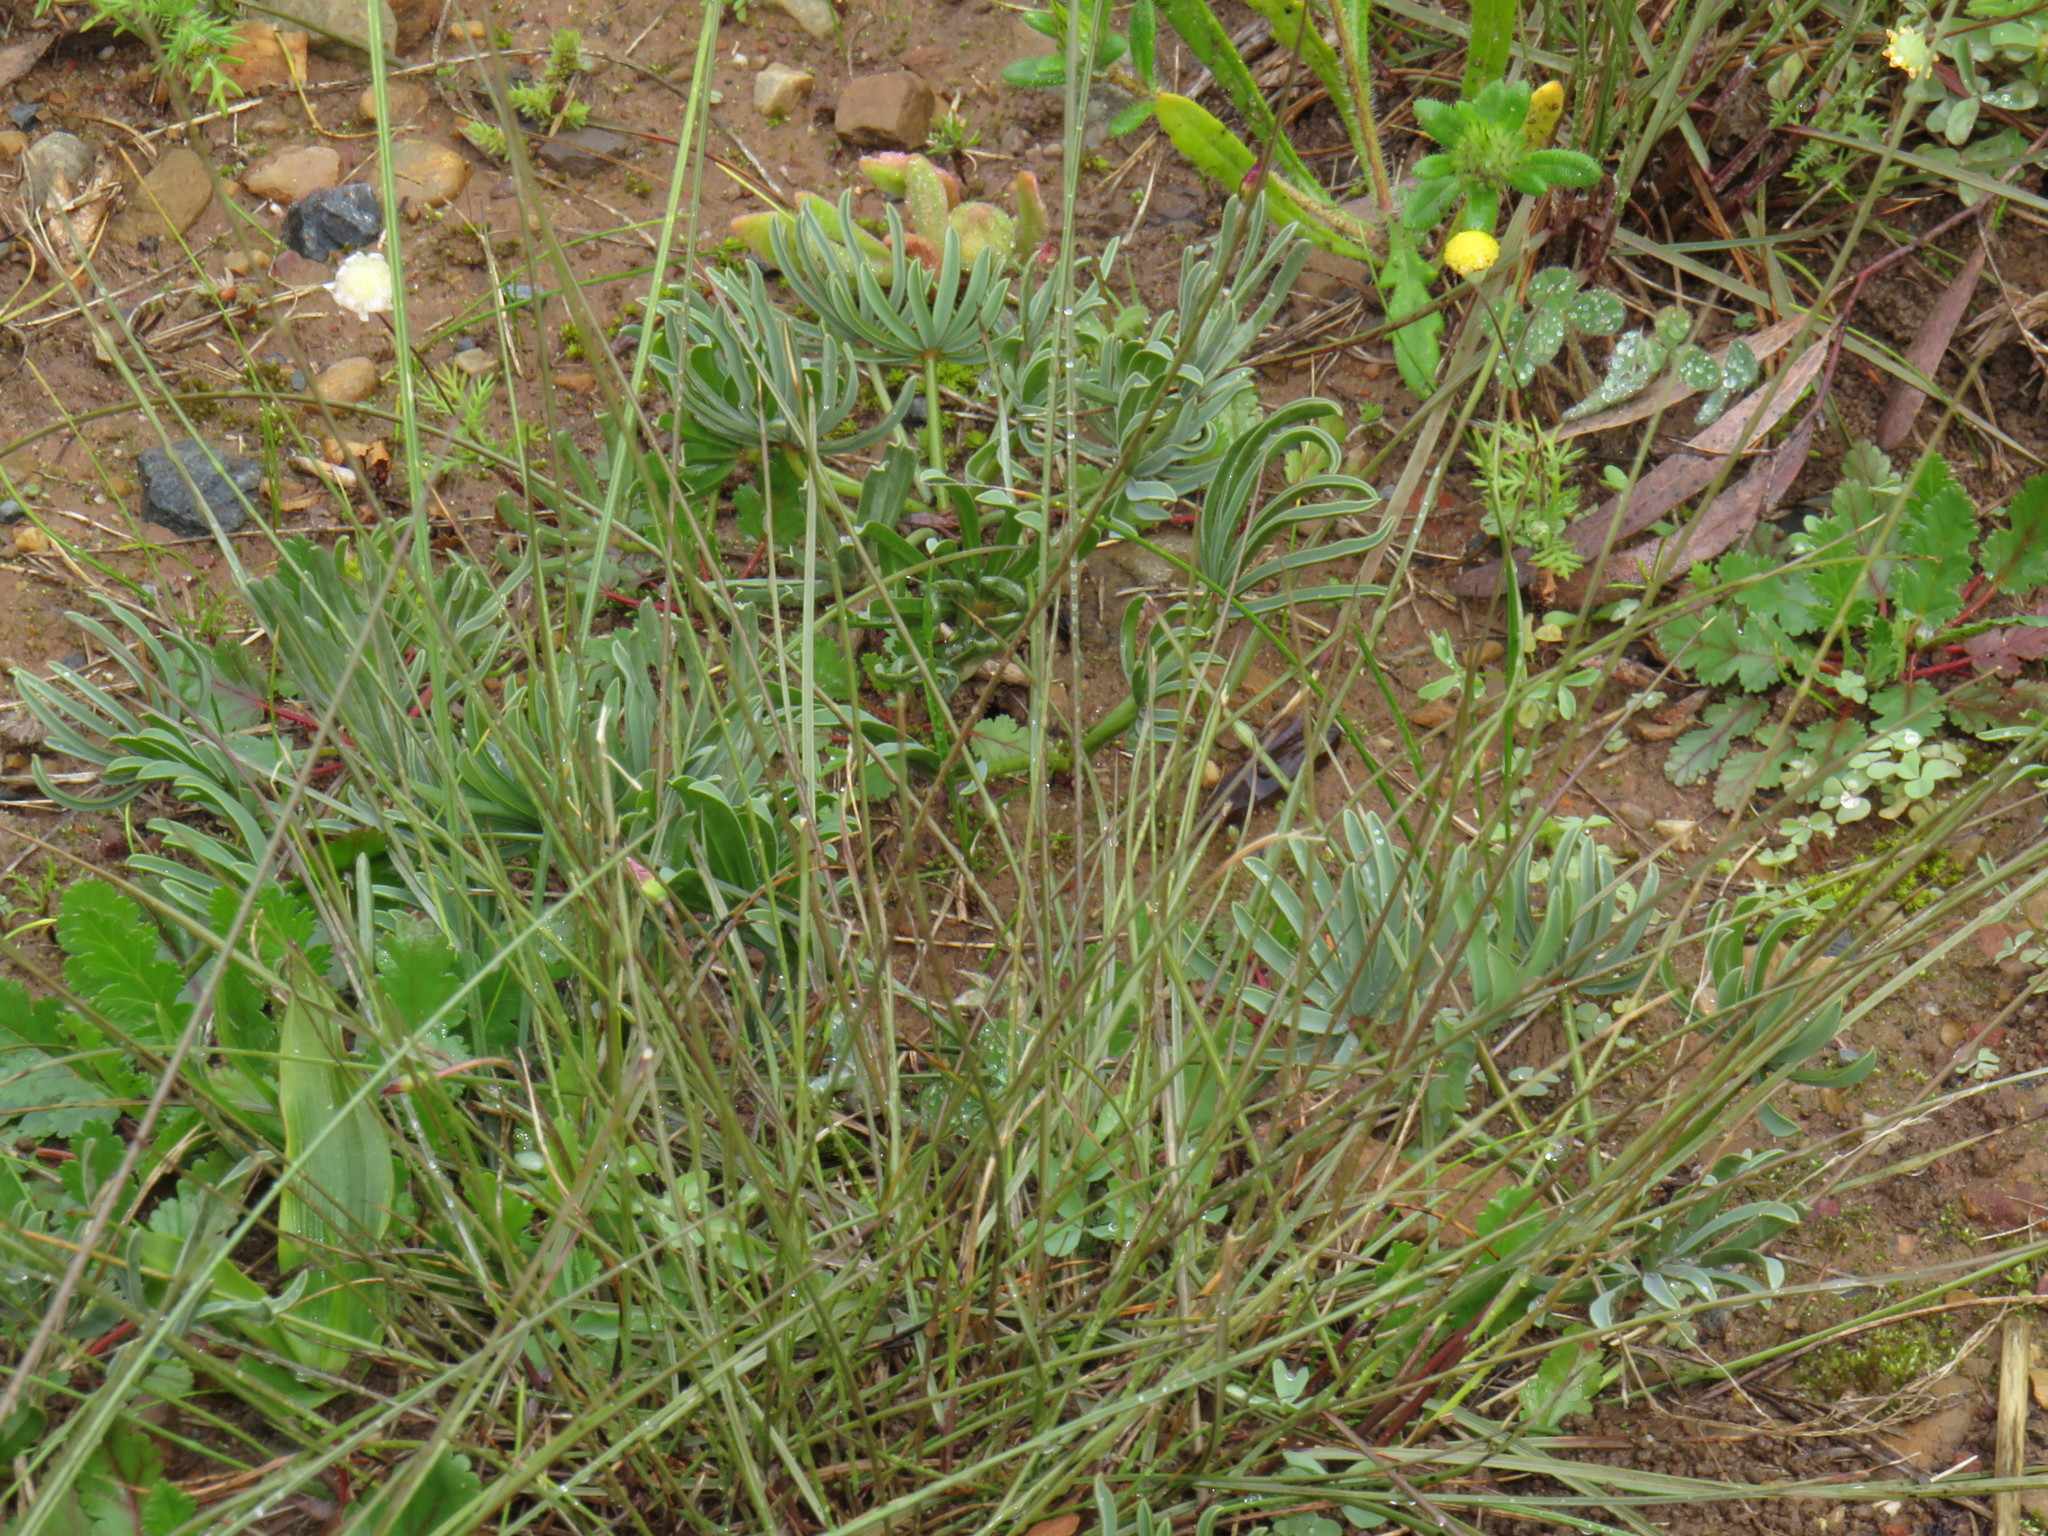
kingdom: Plantae
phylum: Tracheophyta
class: Magnoliopsida
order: Oxalidales
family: Oxalidaceae
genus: Oxalis
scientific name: Oxalis flava
